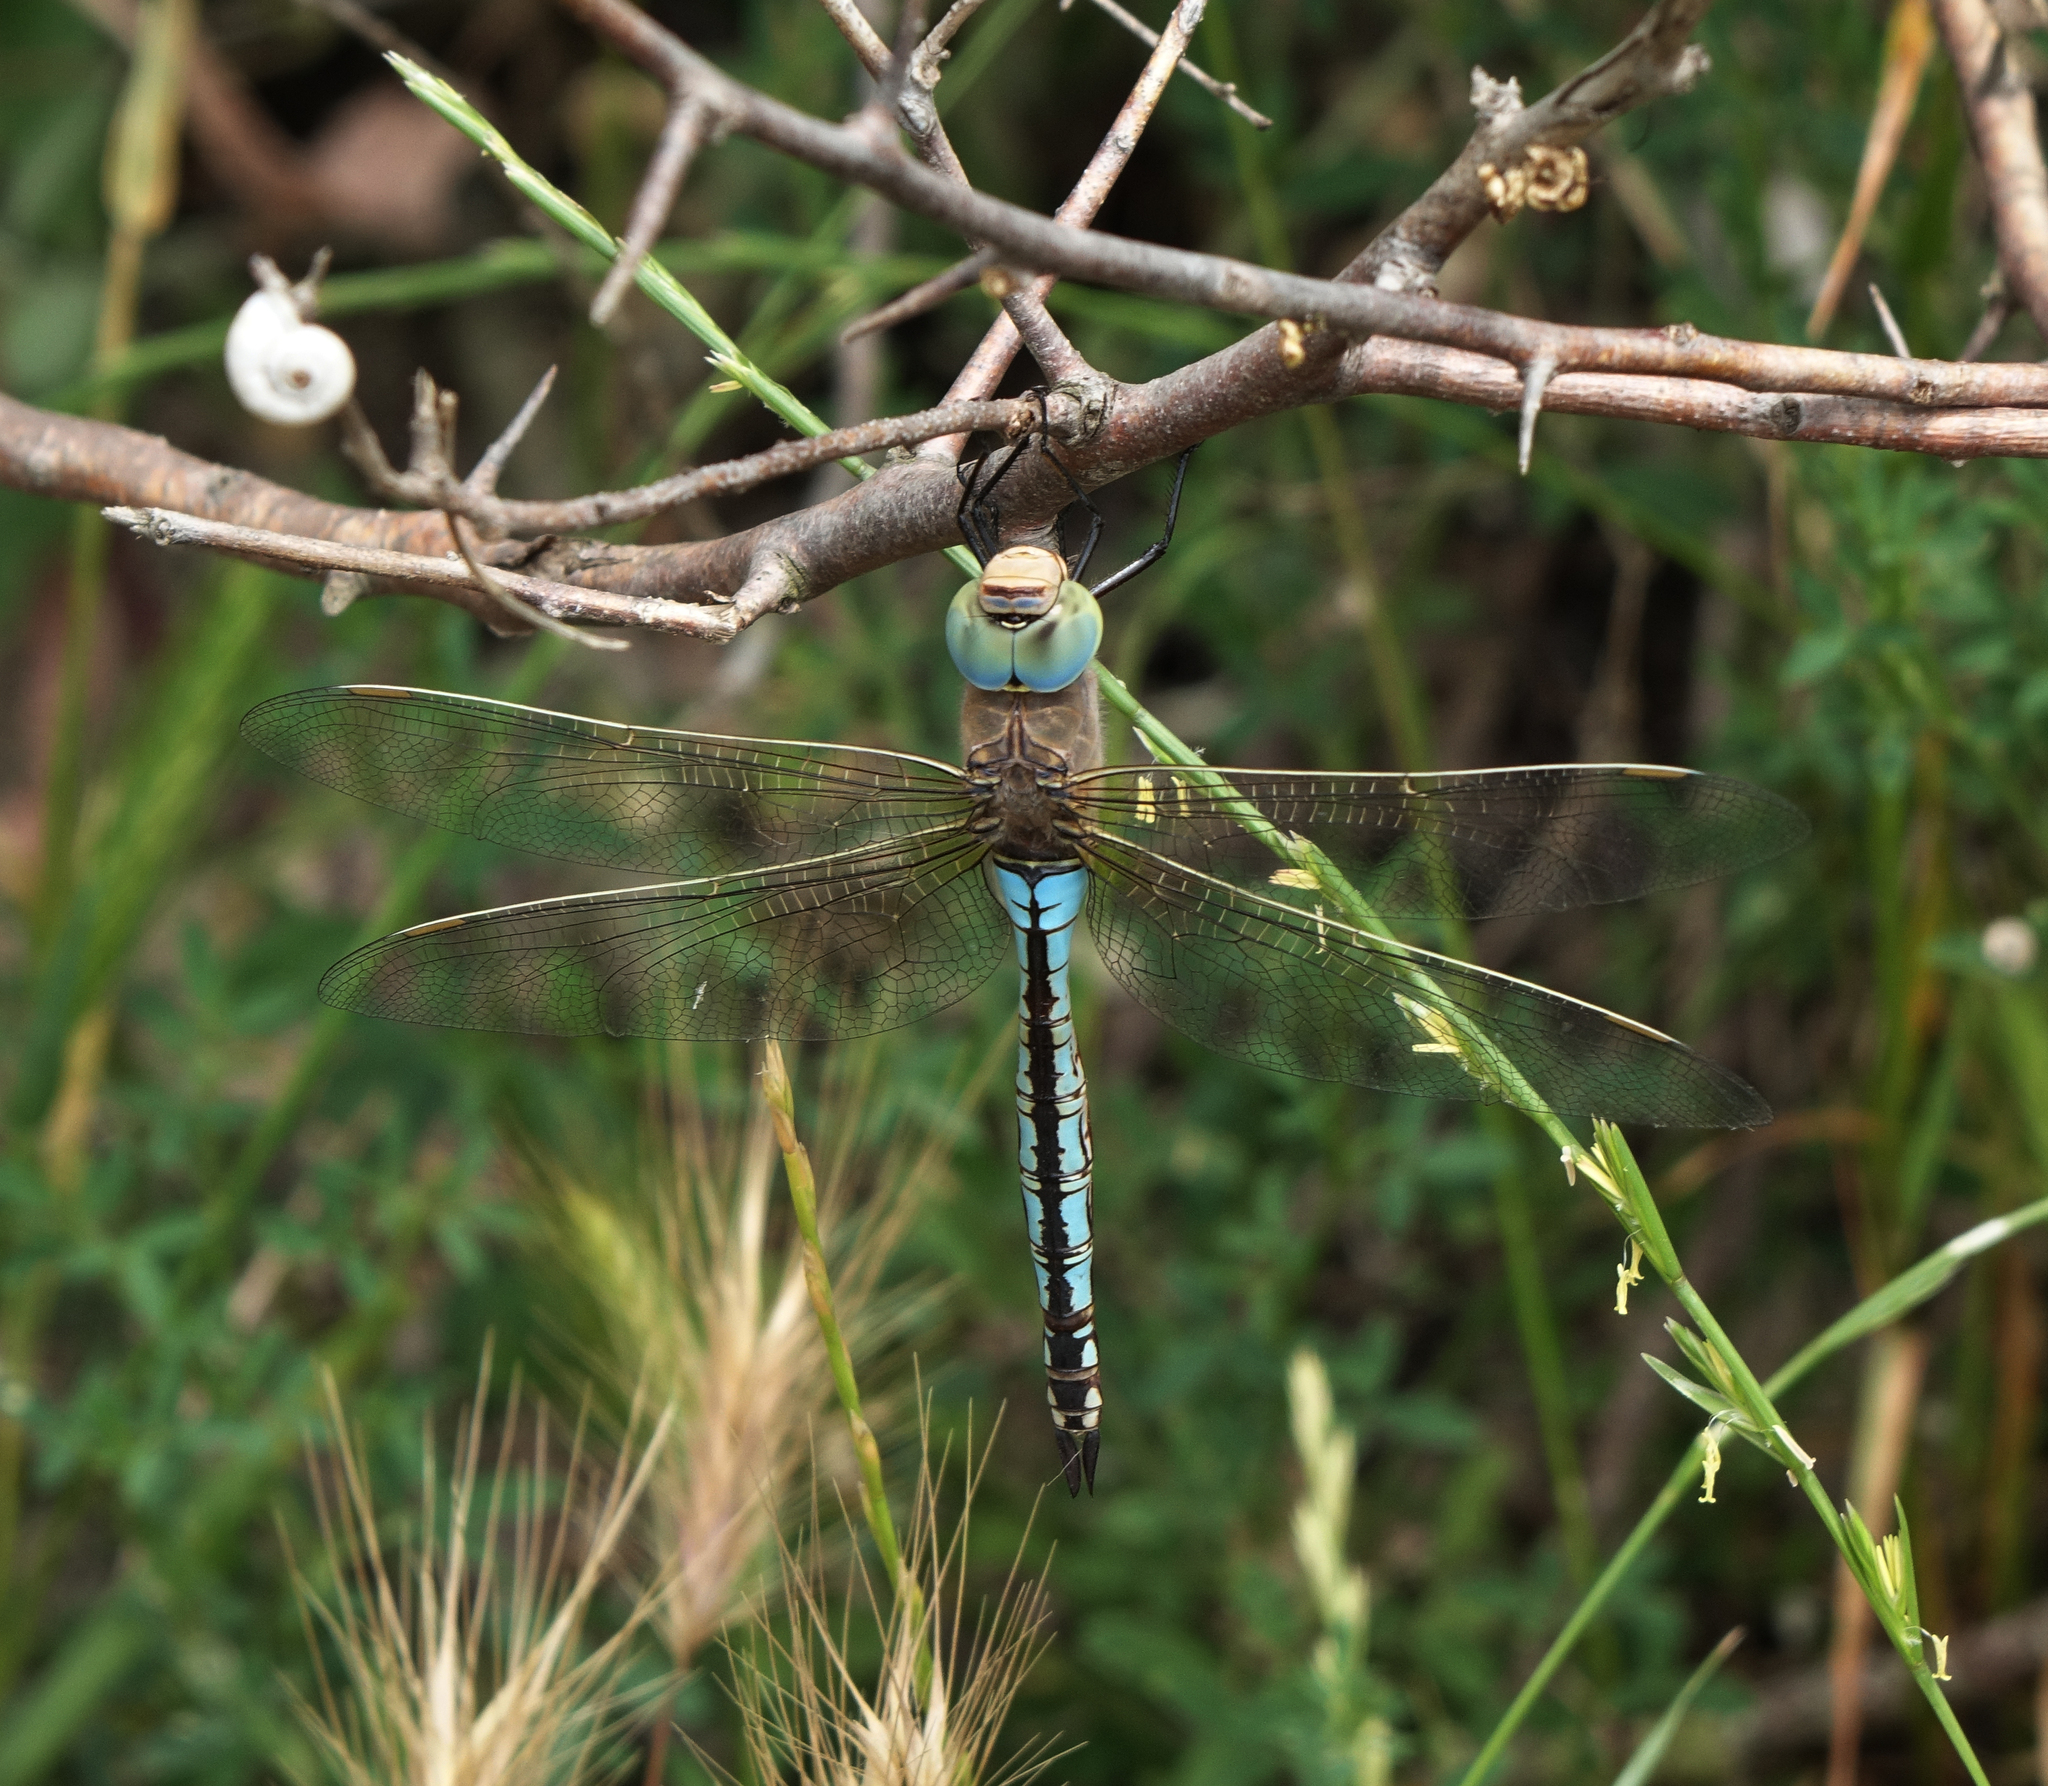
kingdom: Animalia
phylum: Arthropoda
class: Insecta
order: Odonata
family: Aeshnidae
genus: Anax
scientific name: Anax parthenope
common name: Lesser emperor
